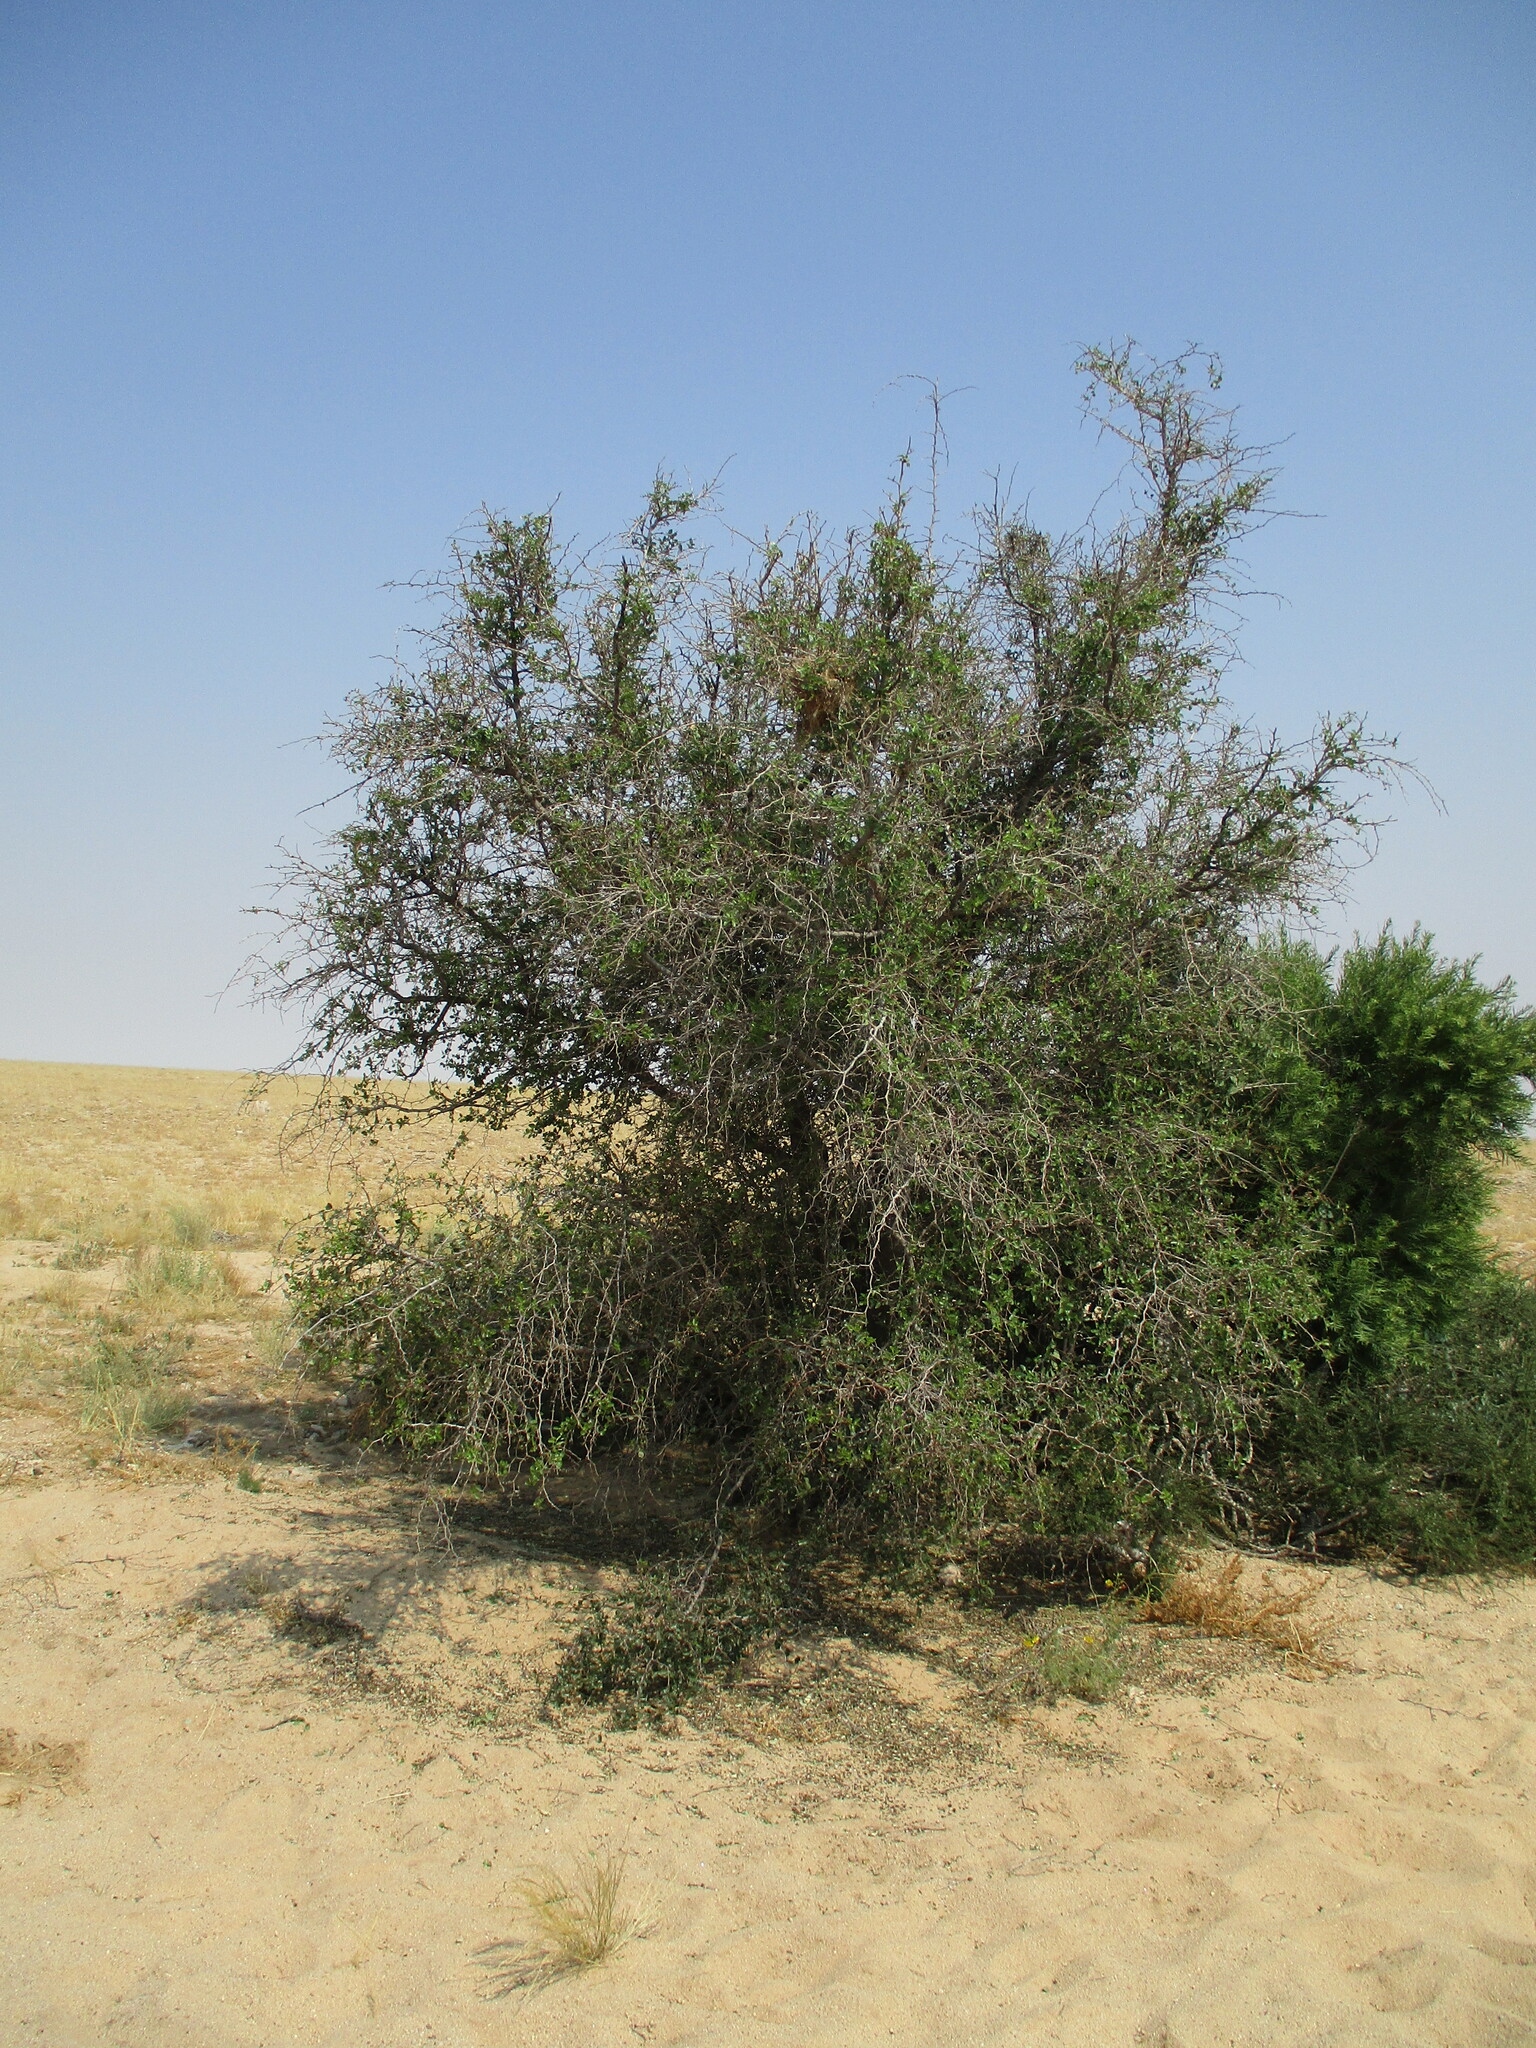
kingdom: Plantae
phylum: Tracheophyta
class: Magnoliopsida
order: Rosales
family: Rhamnaceae
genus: Ziziphus
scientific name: Ziziphus mucronata
